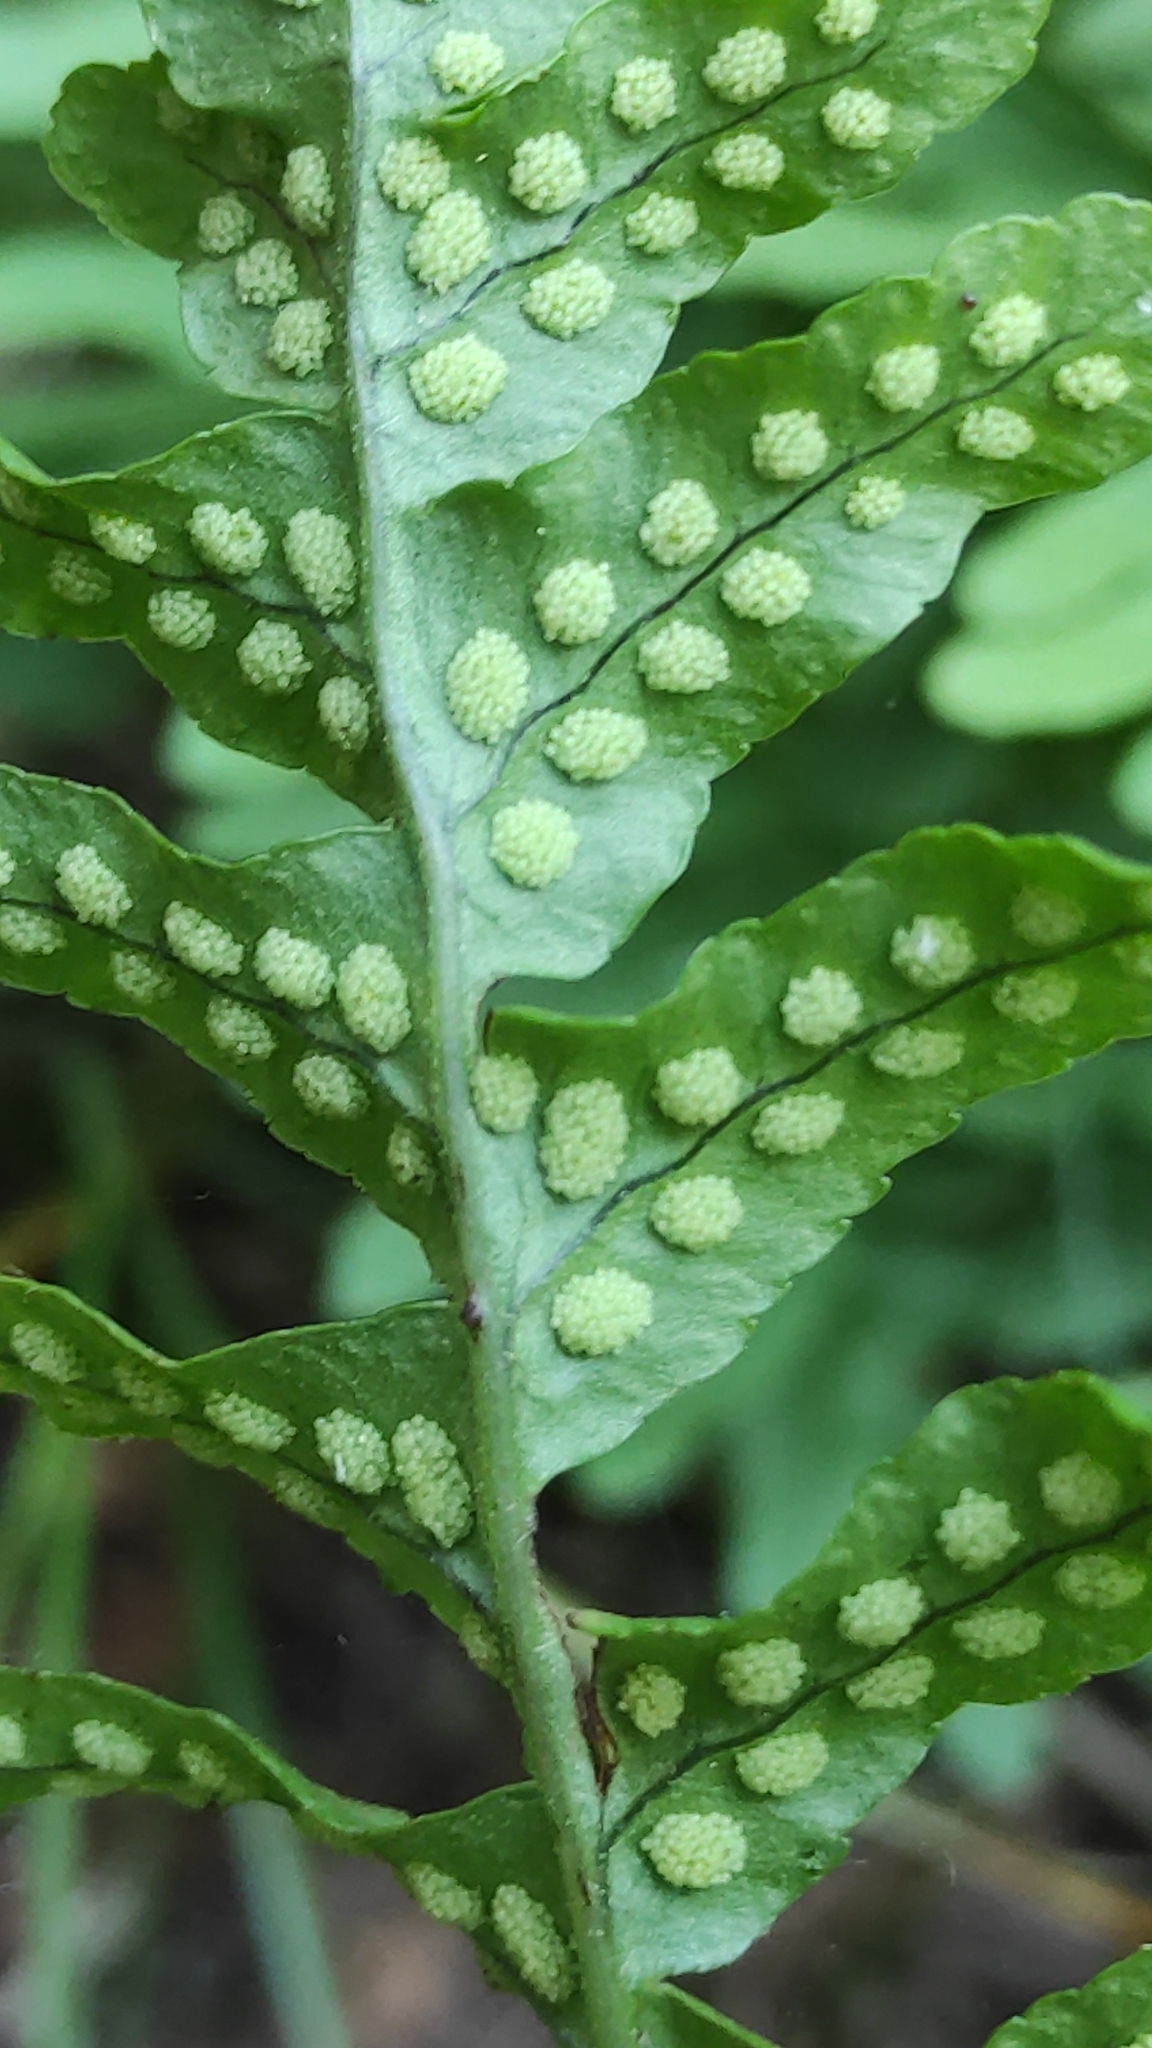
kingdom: Plantae
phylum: Tracheophyta
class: Polypodiopsida
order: Polypodiales
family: Polypodiaceae
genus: Polypodium
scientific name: Polypodium vulgare
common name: Common polypody
